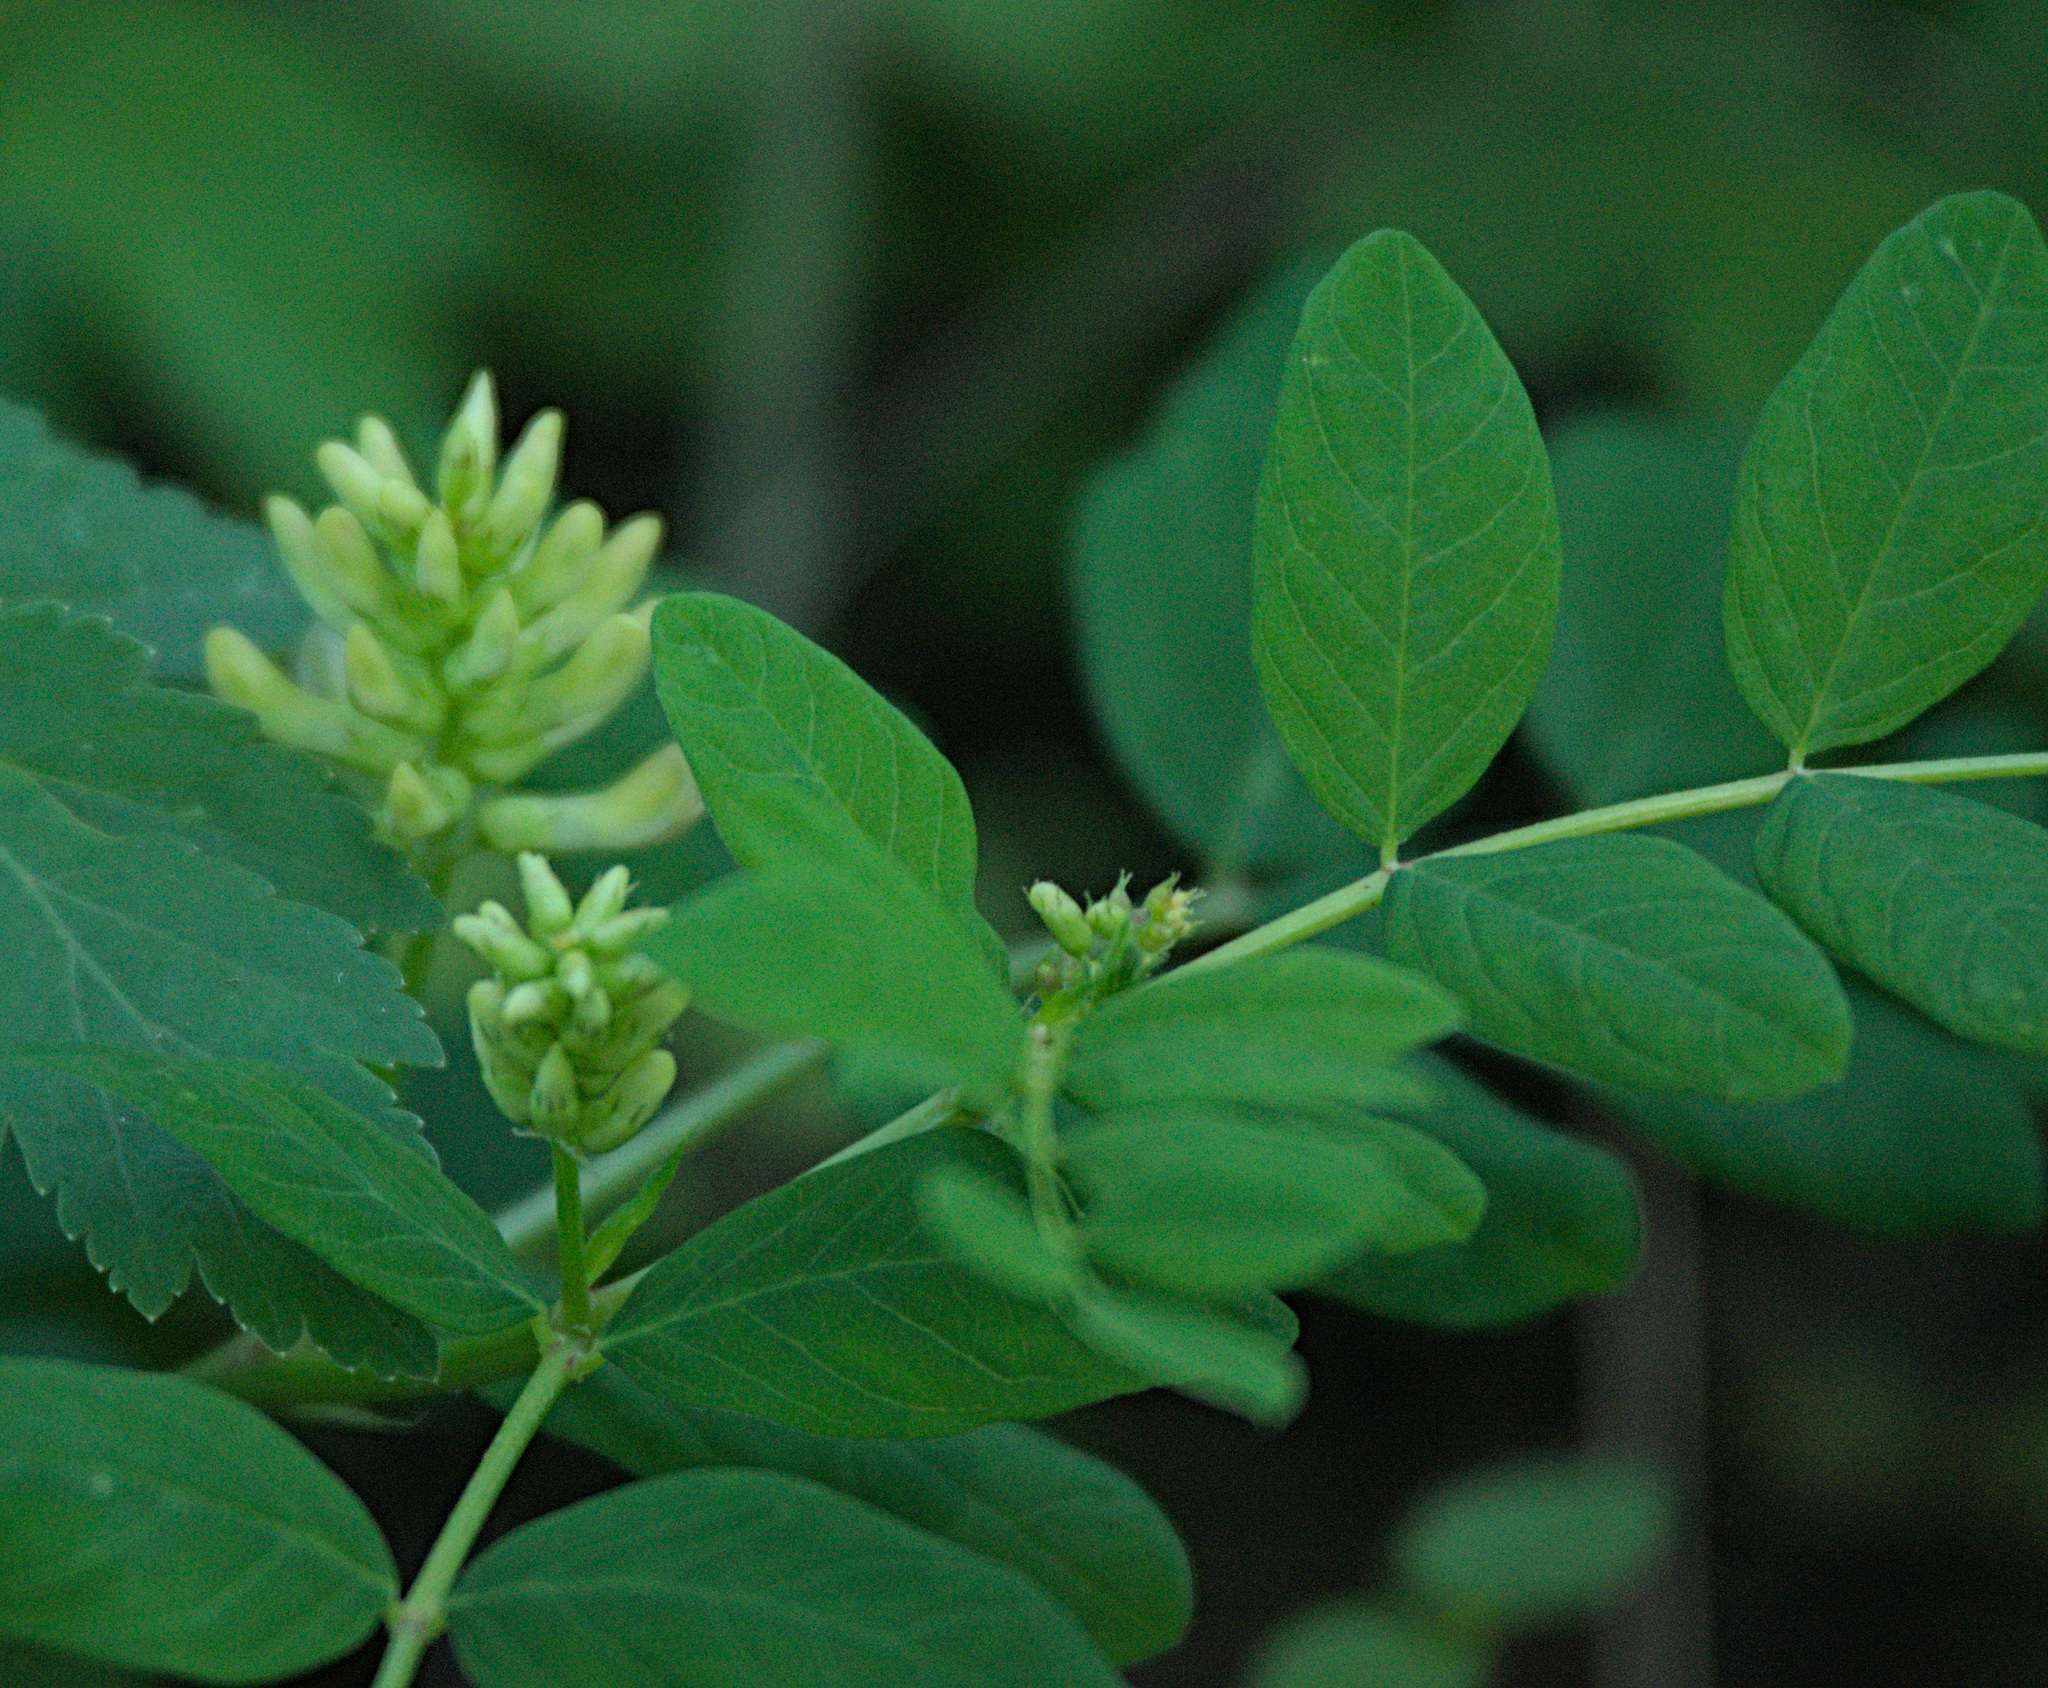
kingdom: Plantae
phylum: Tracheophyta
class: Magnoliopsida
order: Fabales
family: Fabaceae
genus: Astragalus
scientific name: Astragalus glycyphyllos
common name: Wild liquorice
